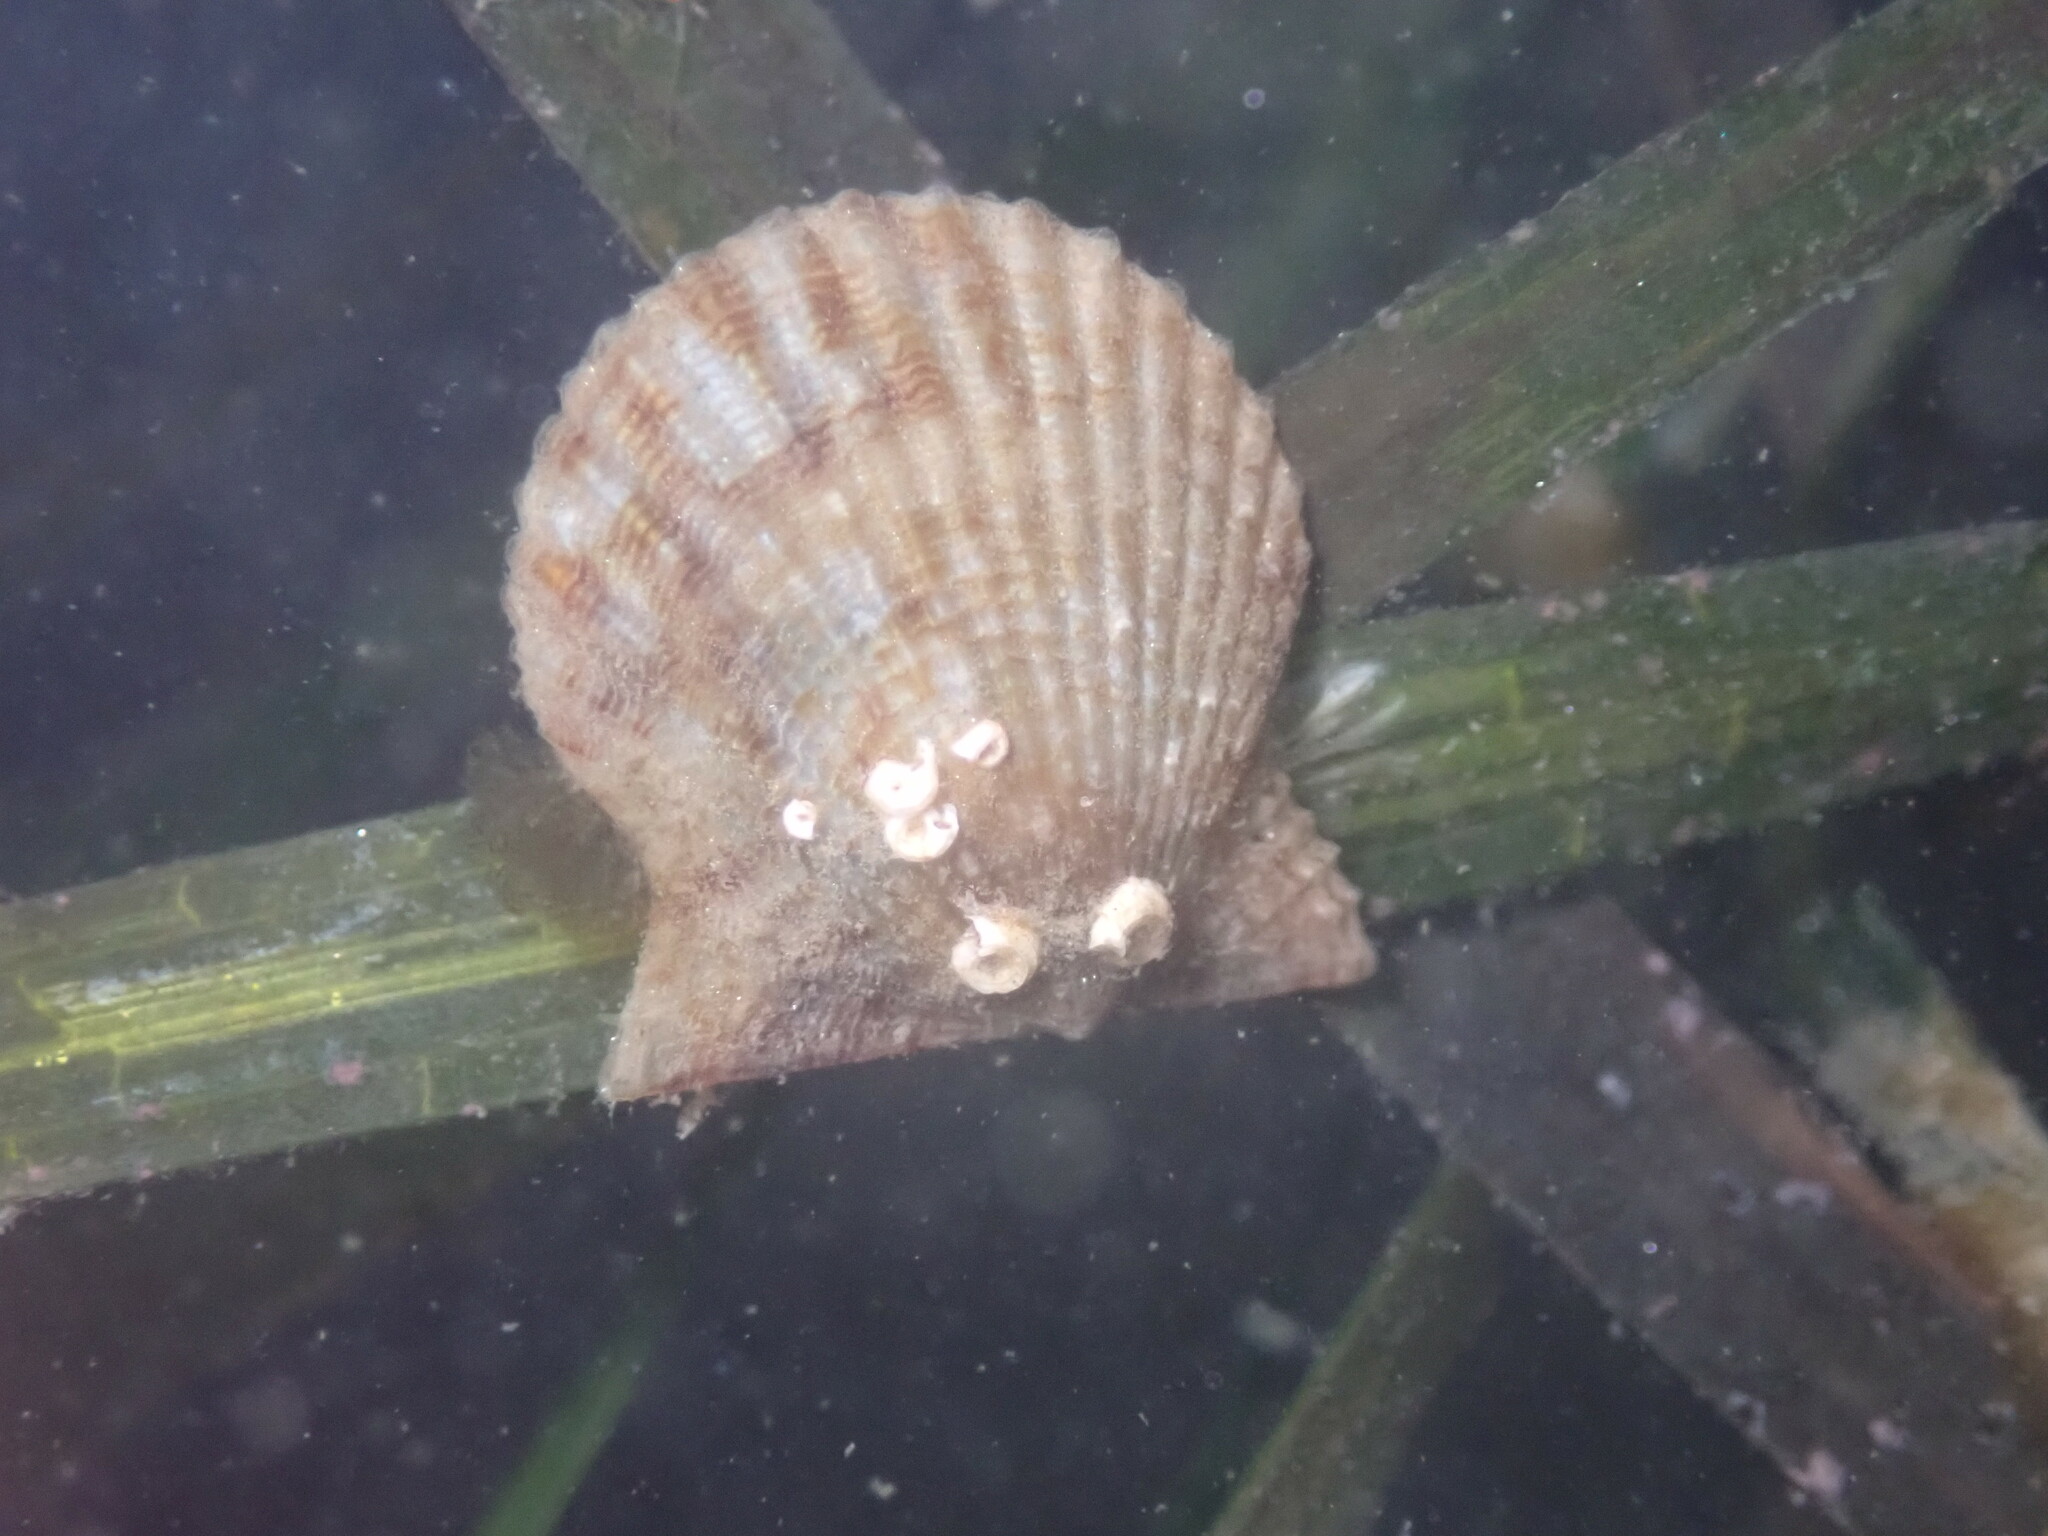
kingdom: Animalia
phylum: Mollusca
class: Bivalvia
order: Pectinida
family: Pectinidae
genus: Leptopecten
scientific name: Leptopecten latiauratus
